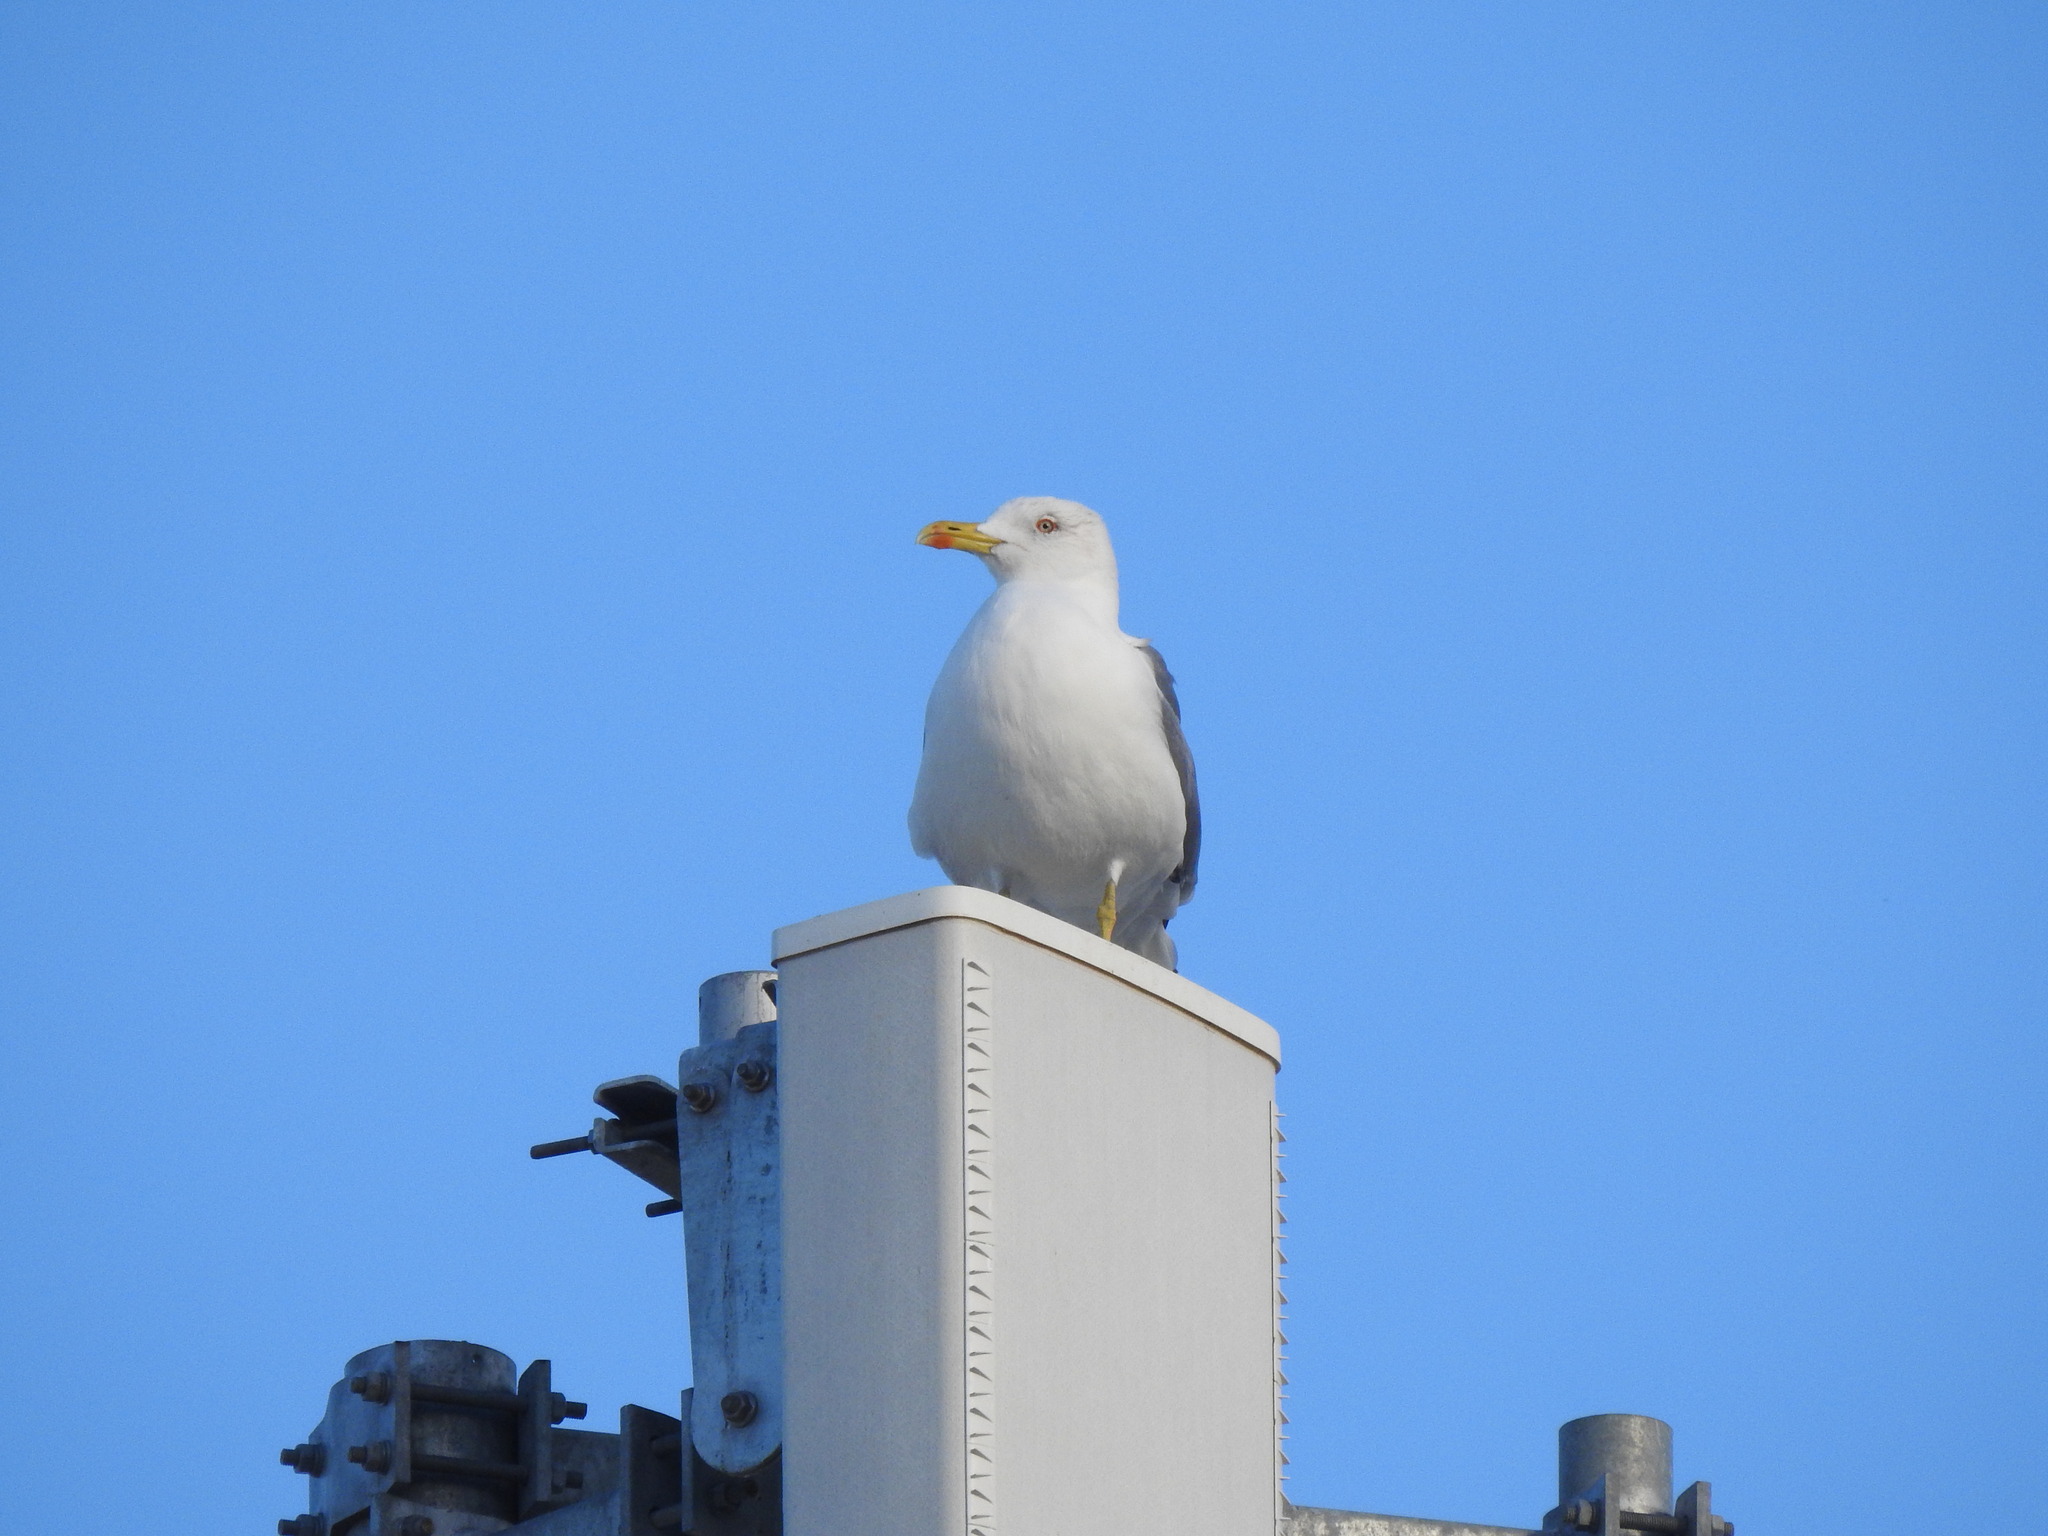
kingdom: Animalia
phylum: Chordata
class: Aves
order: Charadriiformes
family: Laridae
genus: Larus
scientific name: Larus michahellis
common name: Yellow-legged gull
